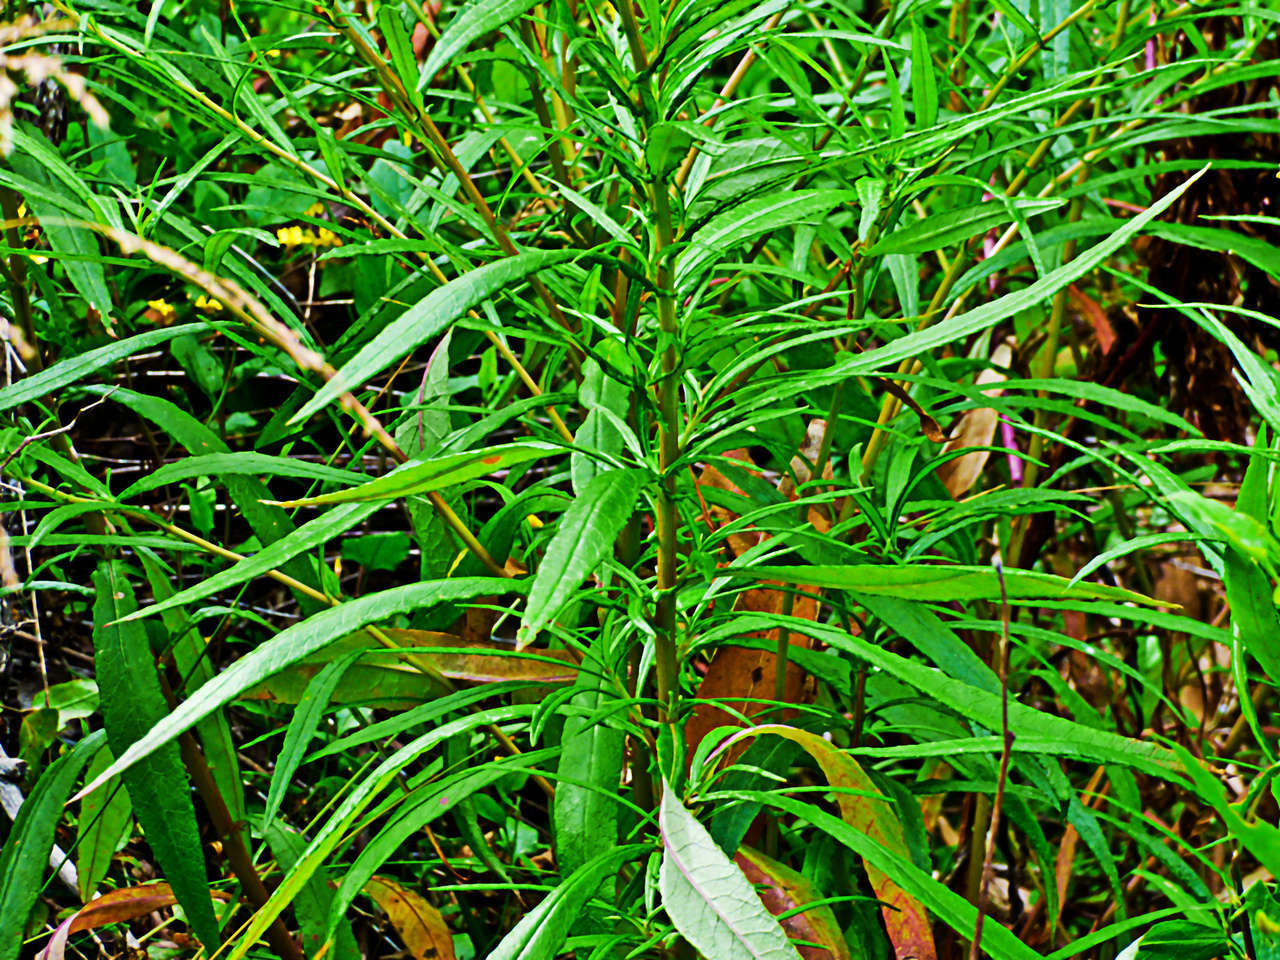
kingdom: Plantae
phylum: Tracheophyta
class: Magnoliopsida
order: Asterales
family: Asteraceae
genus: Senecio
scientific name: Senecio linearifolius
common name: Fireweed groundsel
